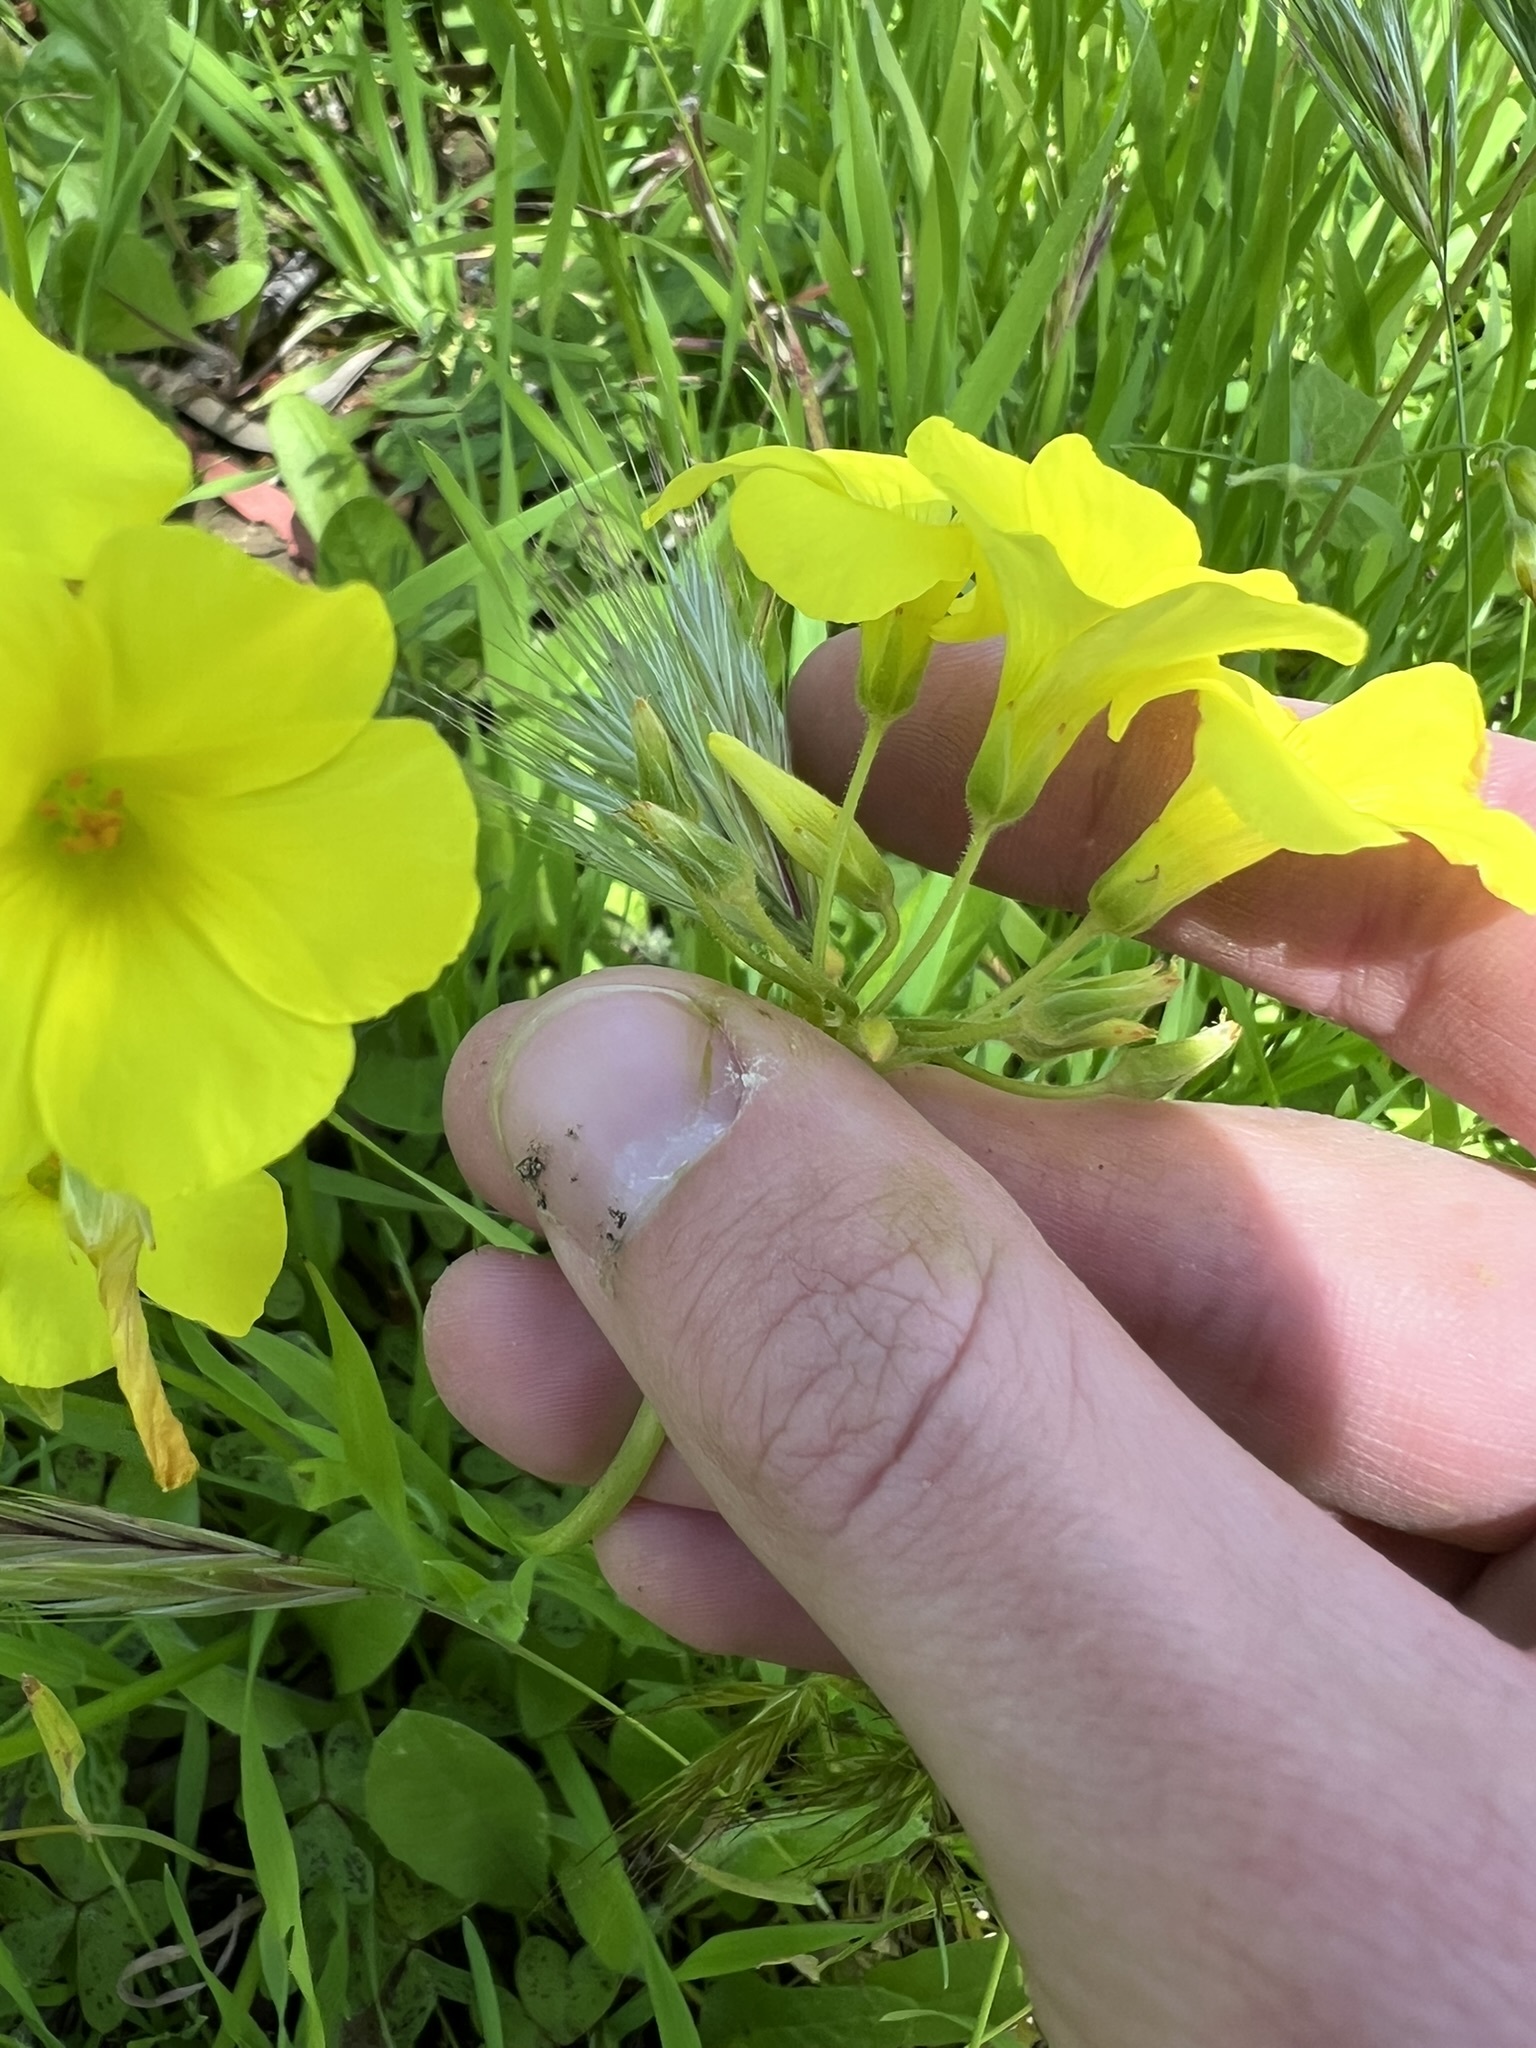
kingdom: Plantae
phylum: Tracheophyta
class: Magnoliopsida
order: Oxalidales
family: Oxalidaceae
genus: Oxalis
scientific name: Oxalis pes-caprae
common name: Bermuda-buttercup
